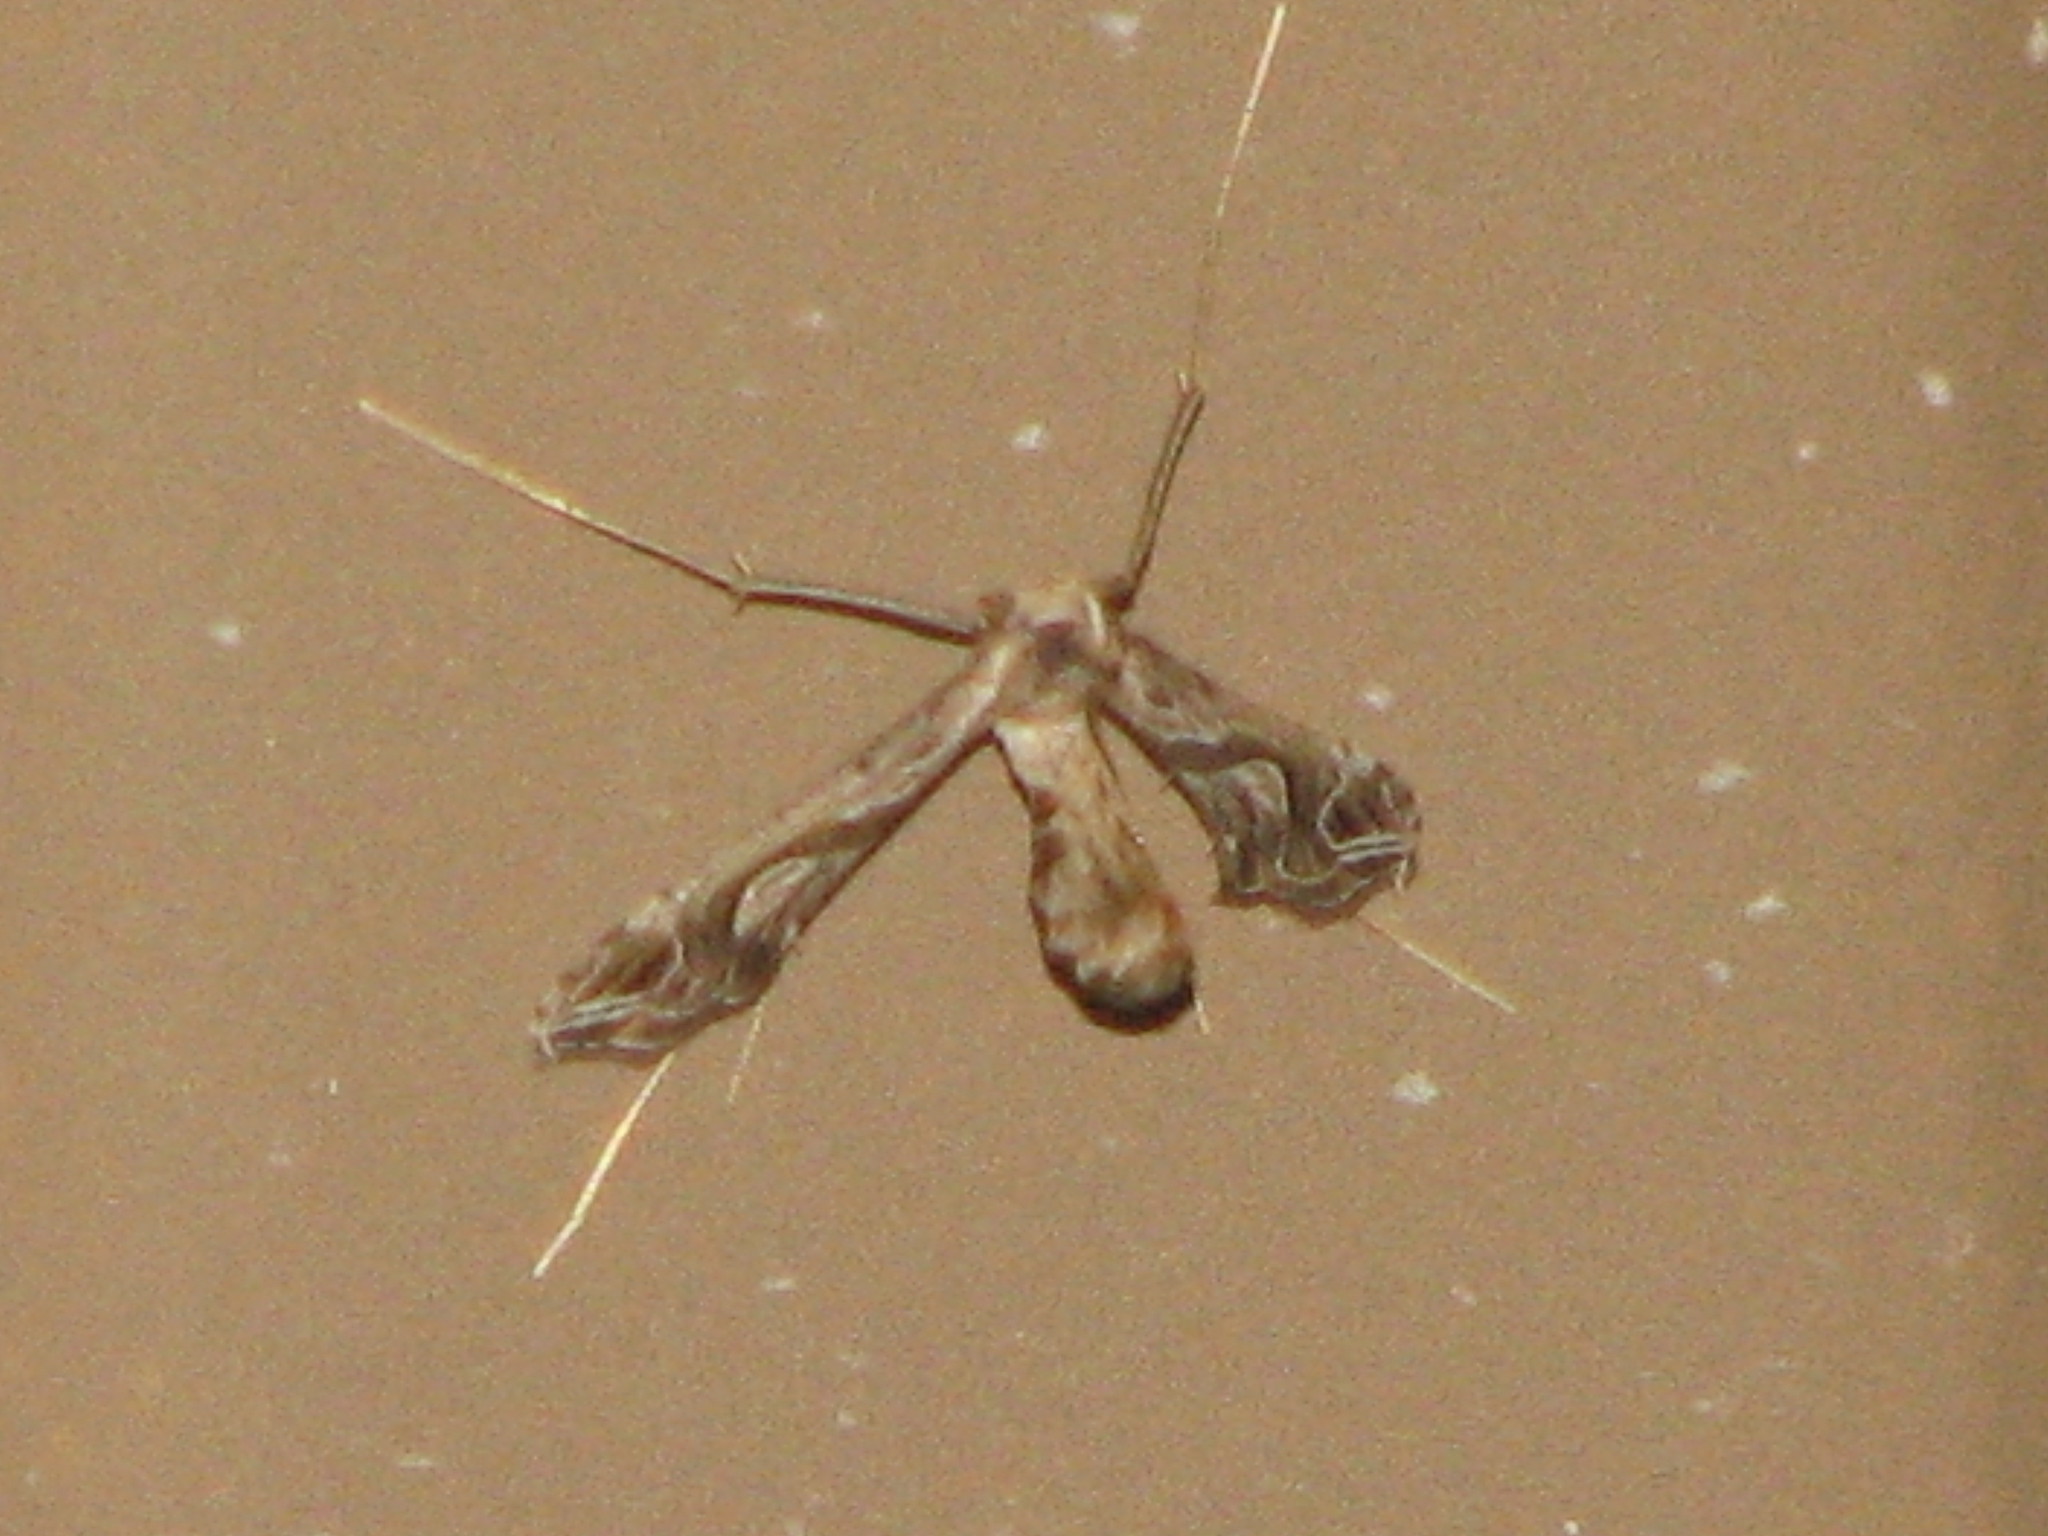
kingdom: Animalia
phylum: Arthropoda
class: Insecta
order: Lepidoptera
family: Crambidae
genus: Lineodes
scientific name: Lineodes integra
